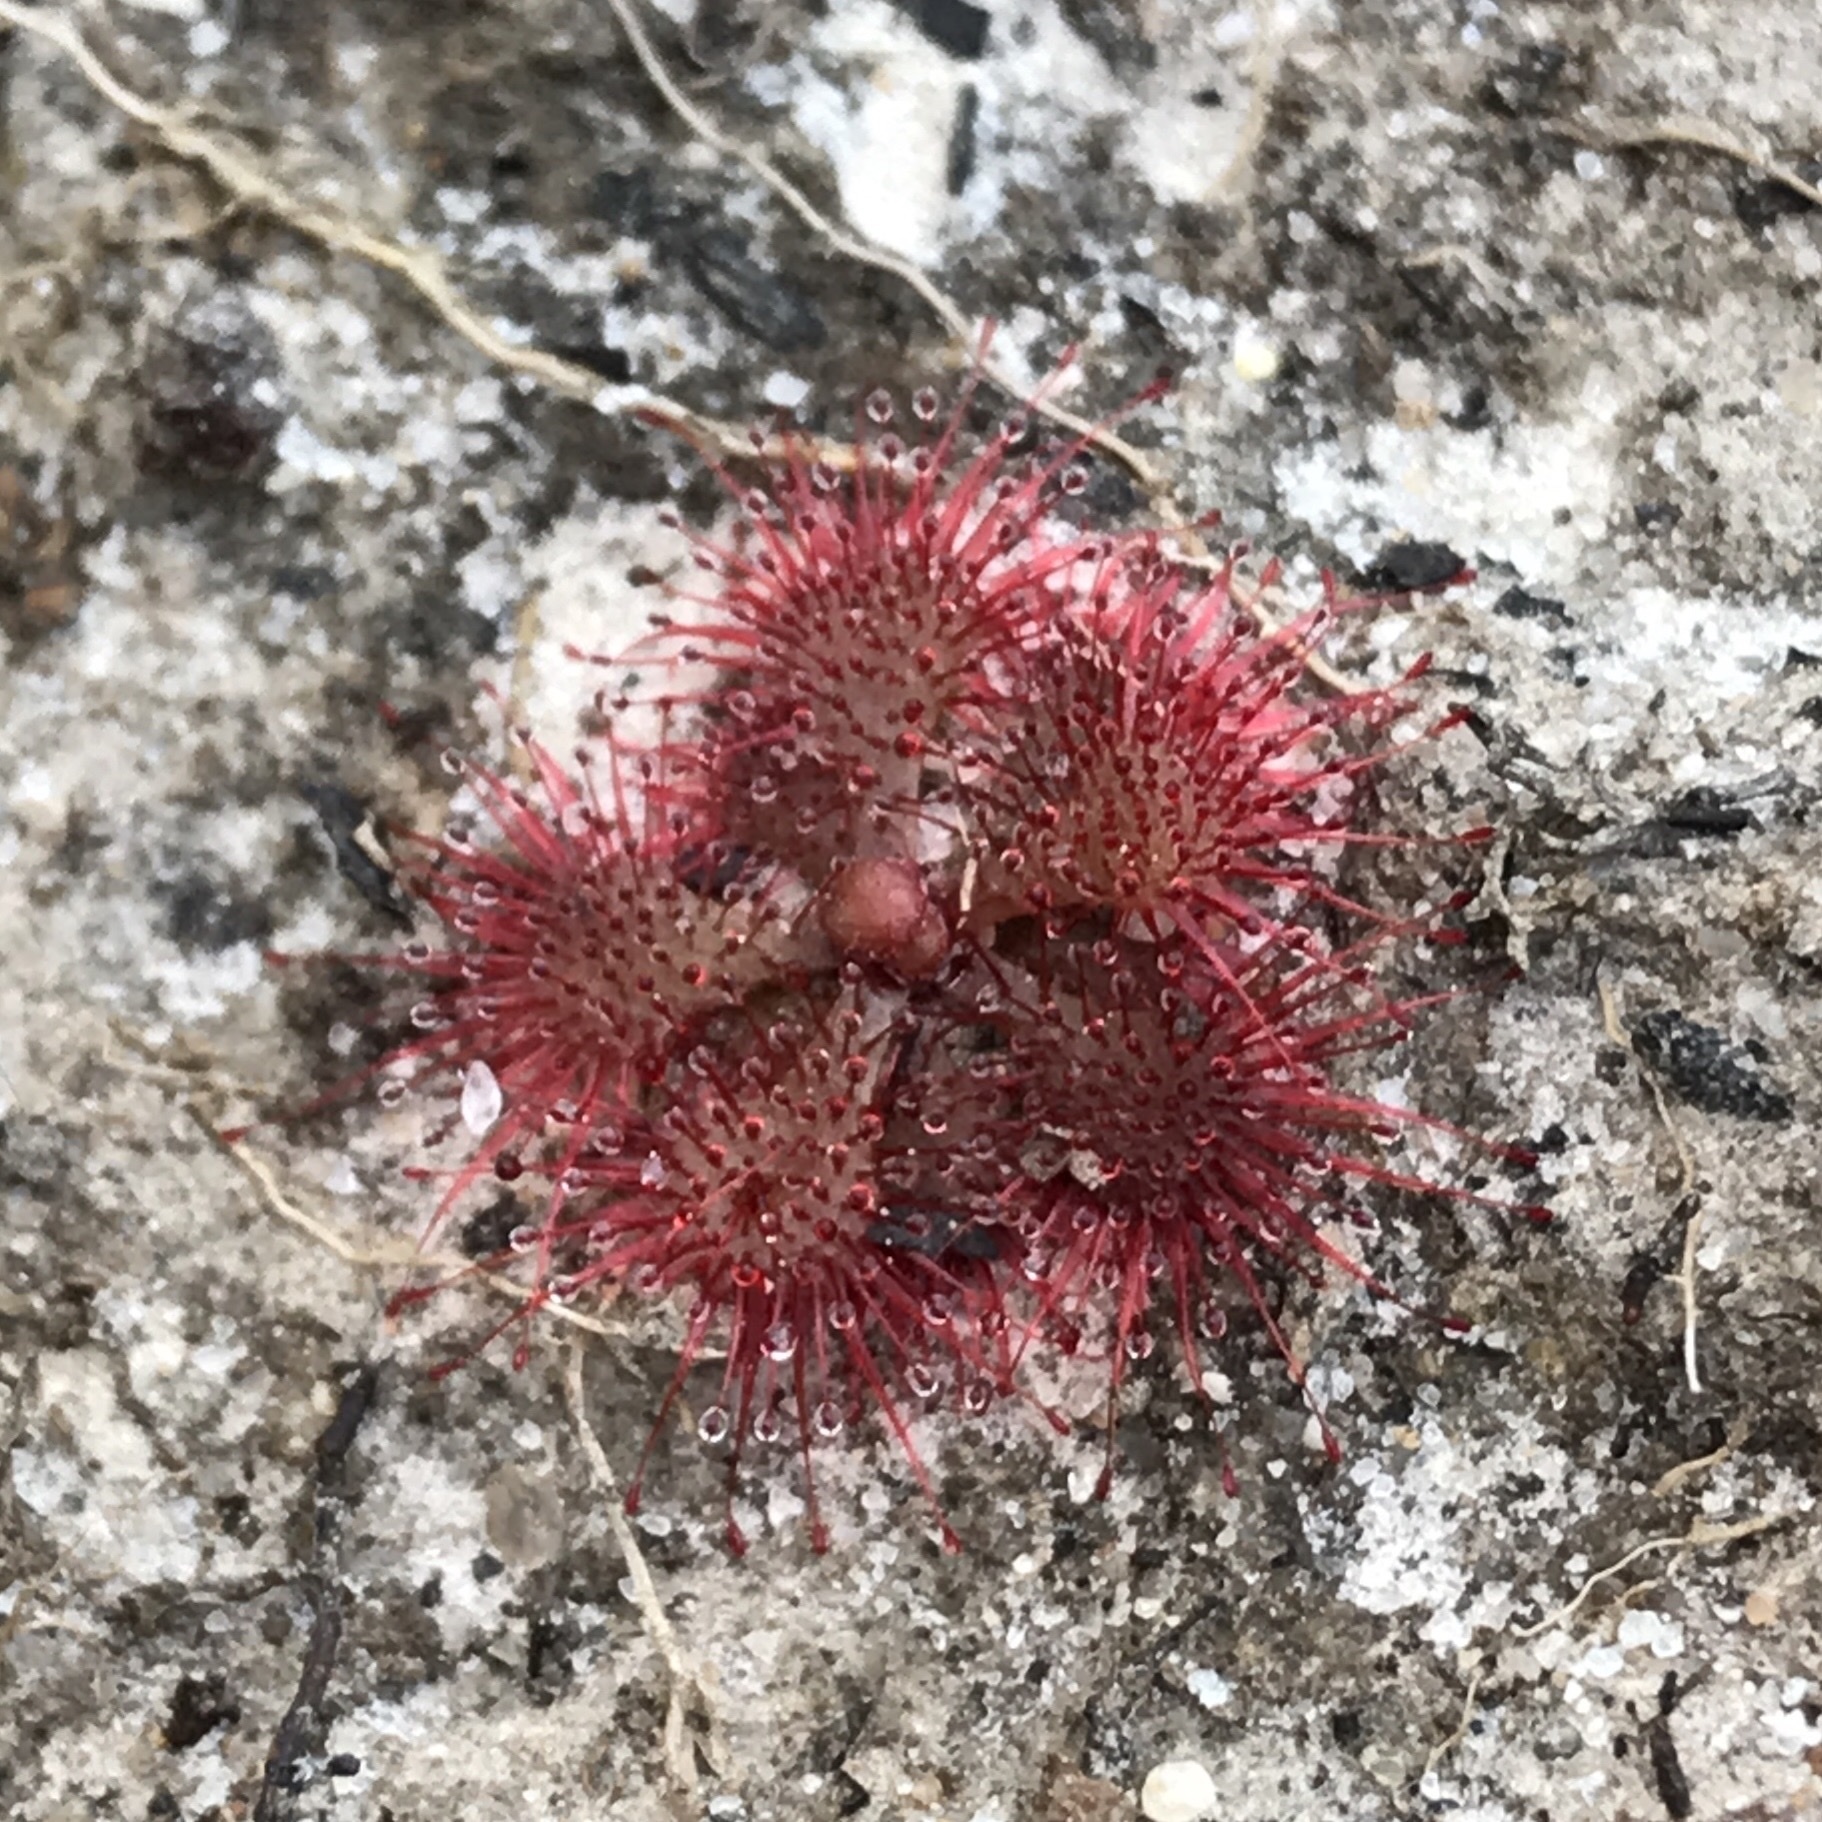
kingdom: Plantae
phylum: Tracheophyta
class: Magnoliopsida
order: Caryophyllales
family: Droseraceae
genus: Drosera
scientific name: Drosera brevifolia
